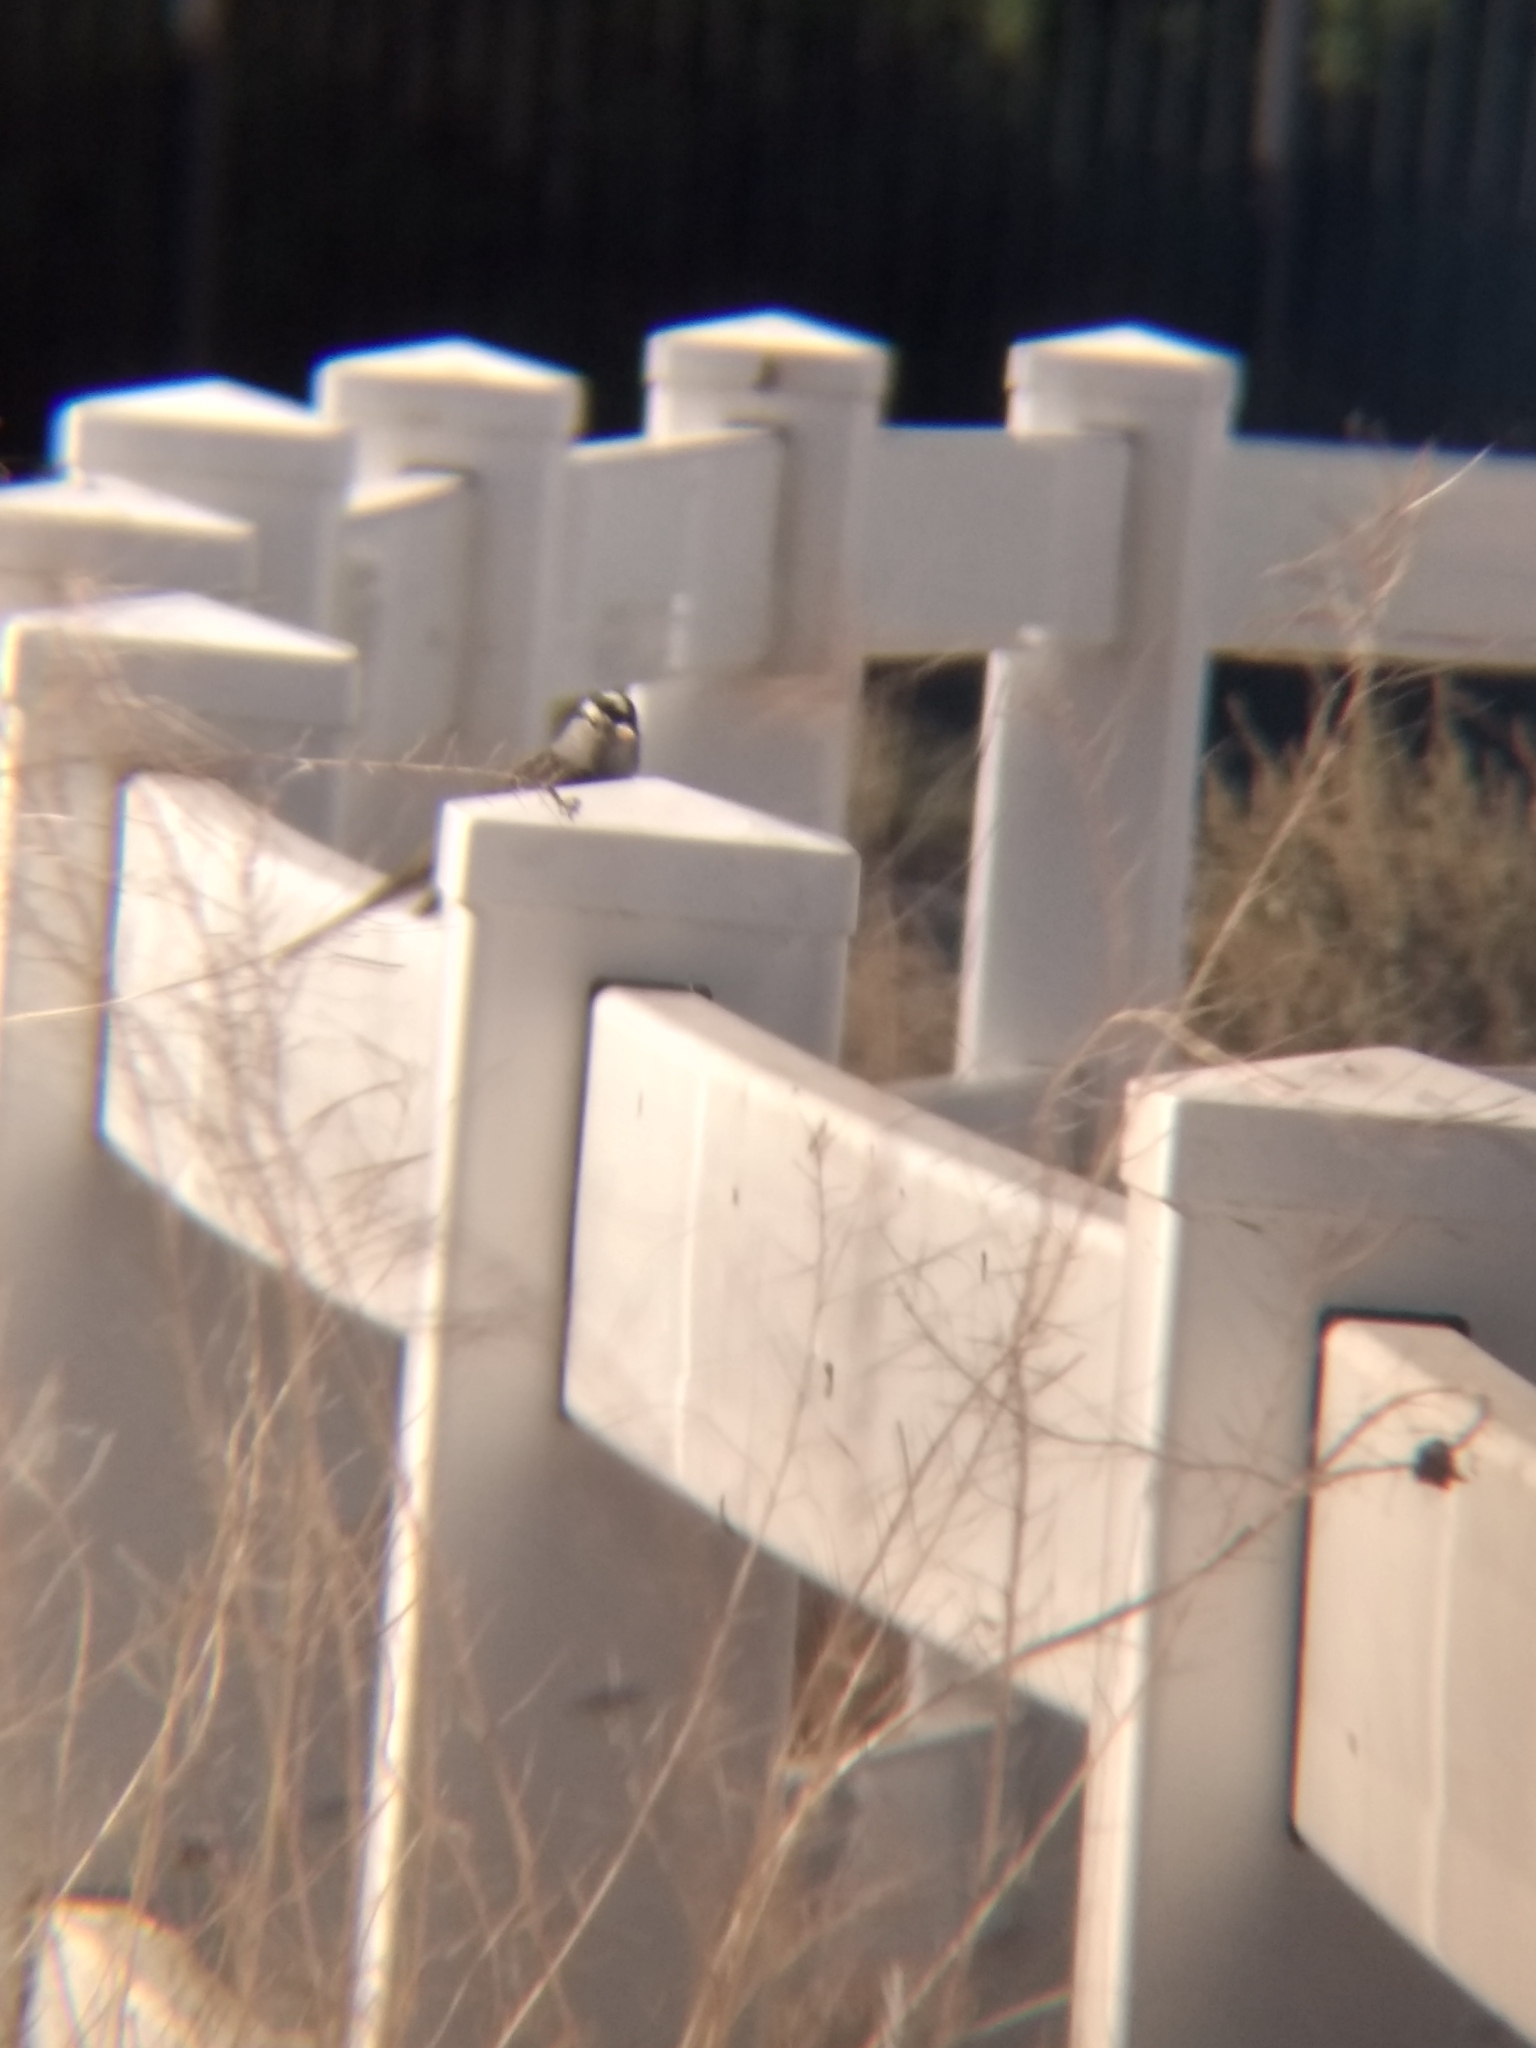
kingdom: Animalia
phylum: Chordata
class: Aves
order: Passeriformes
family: Passerellidae
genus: Zonotrichia
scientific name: Zonotrichia leucophrys
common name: White-crowned sparrow
